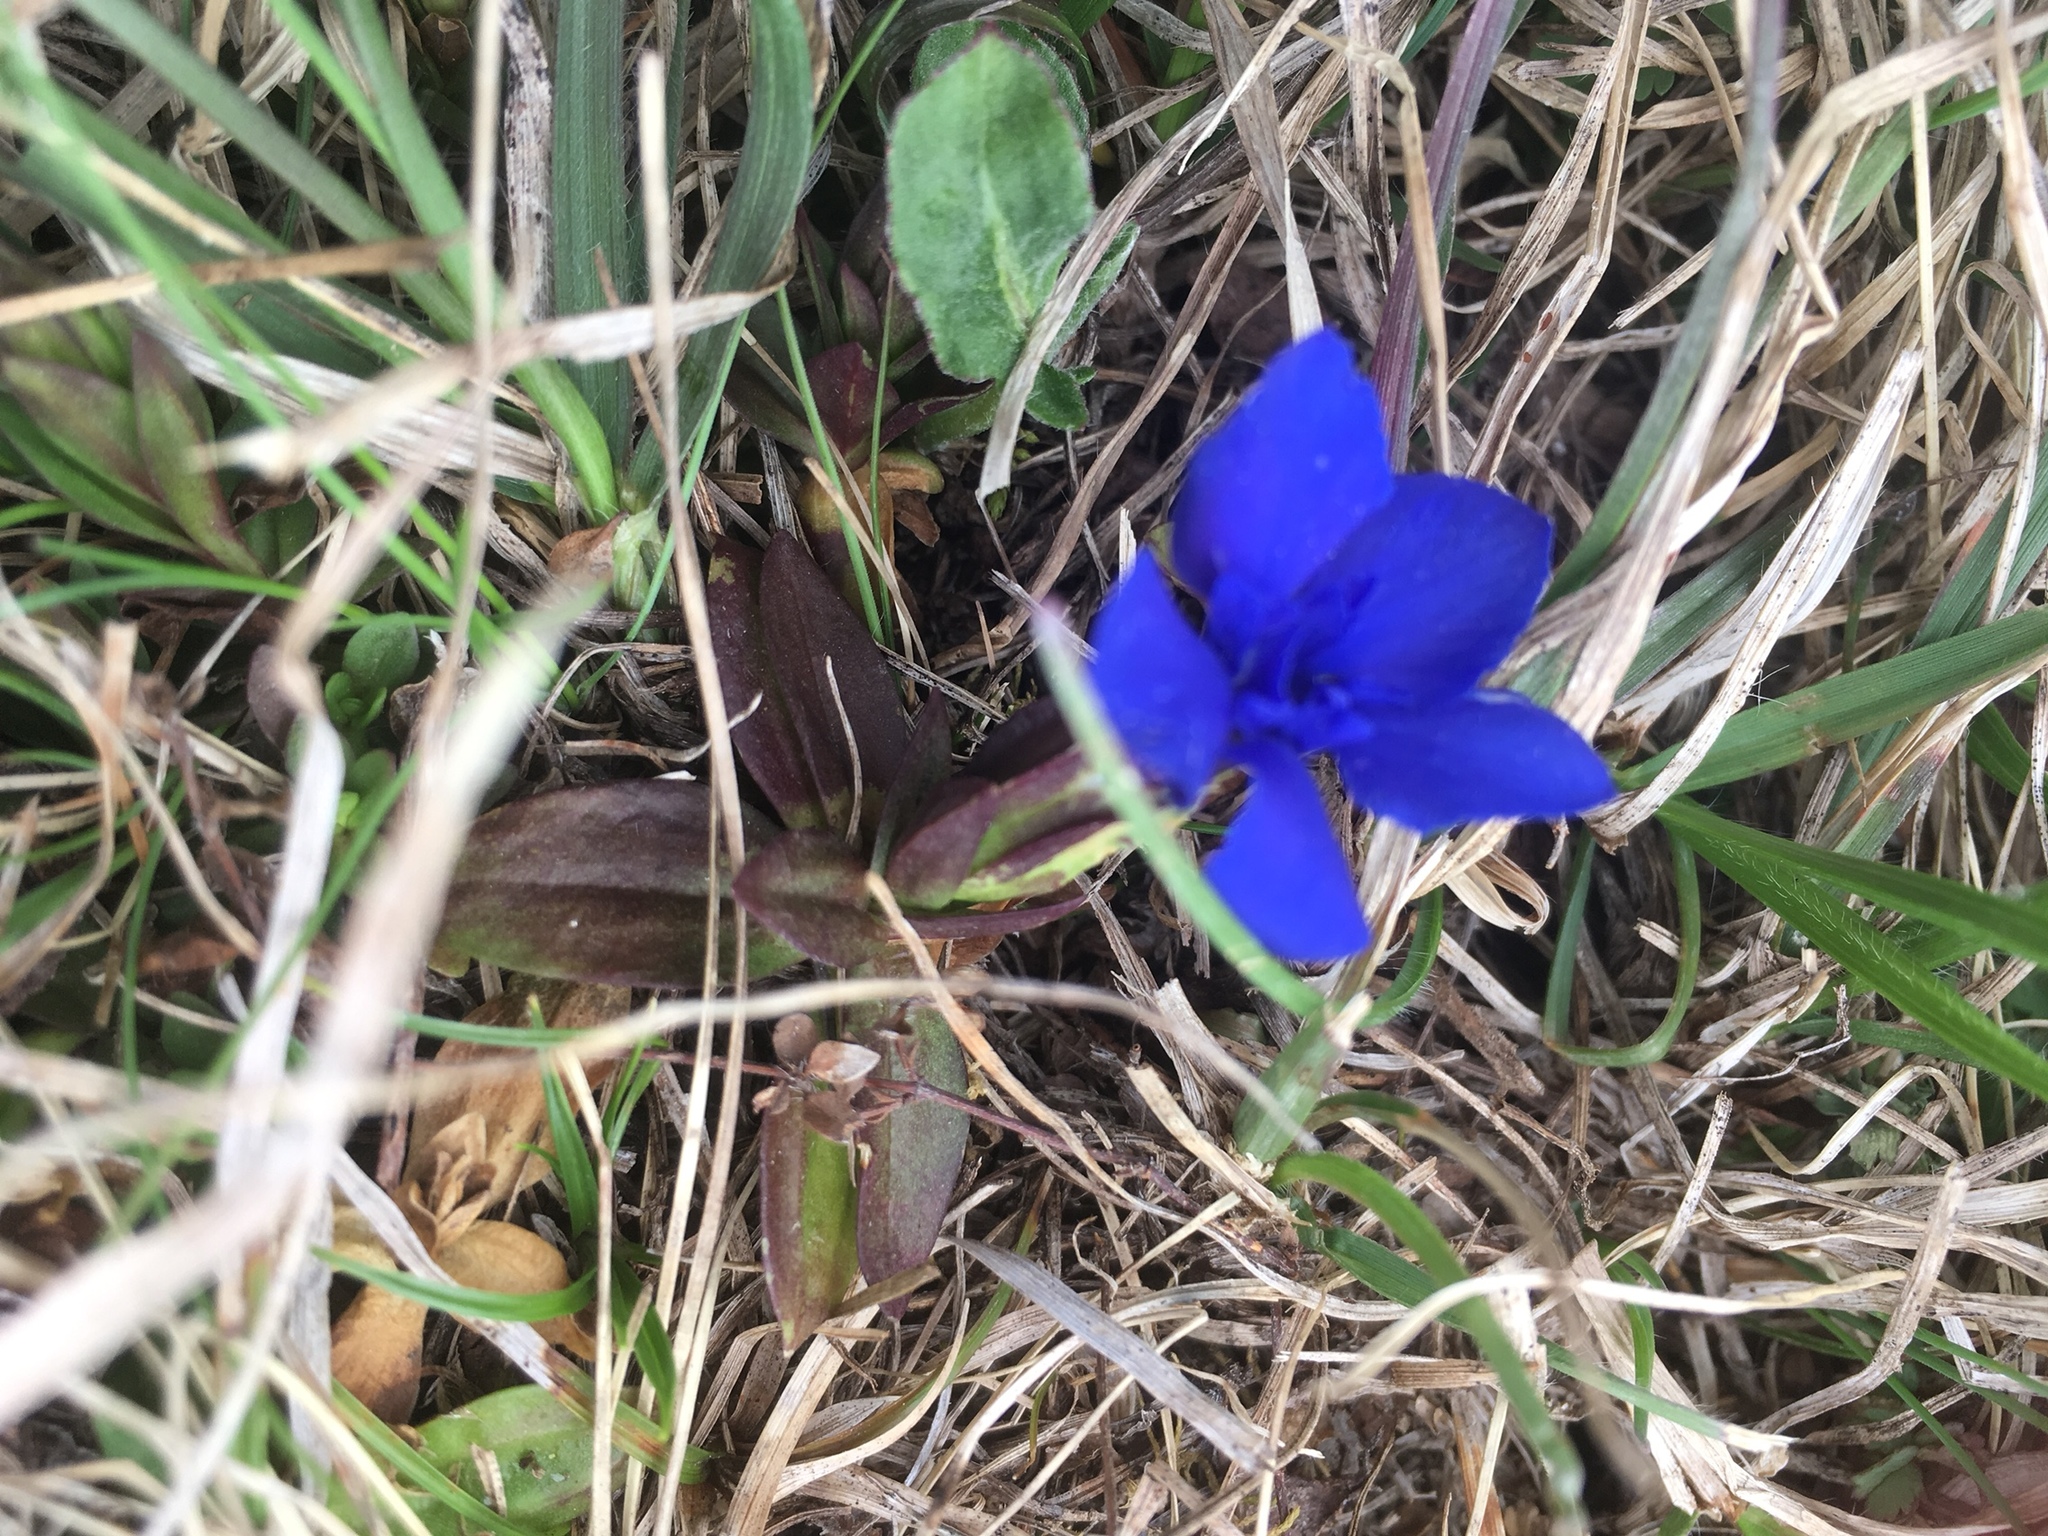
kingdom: Plantae
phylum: Tracheophyta
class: Magnoliopsida
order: Gentianales
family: Gentianaceae
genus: Gentiana
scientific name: Gentiana verna
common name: Spring gentian
